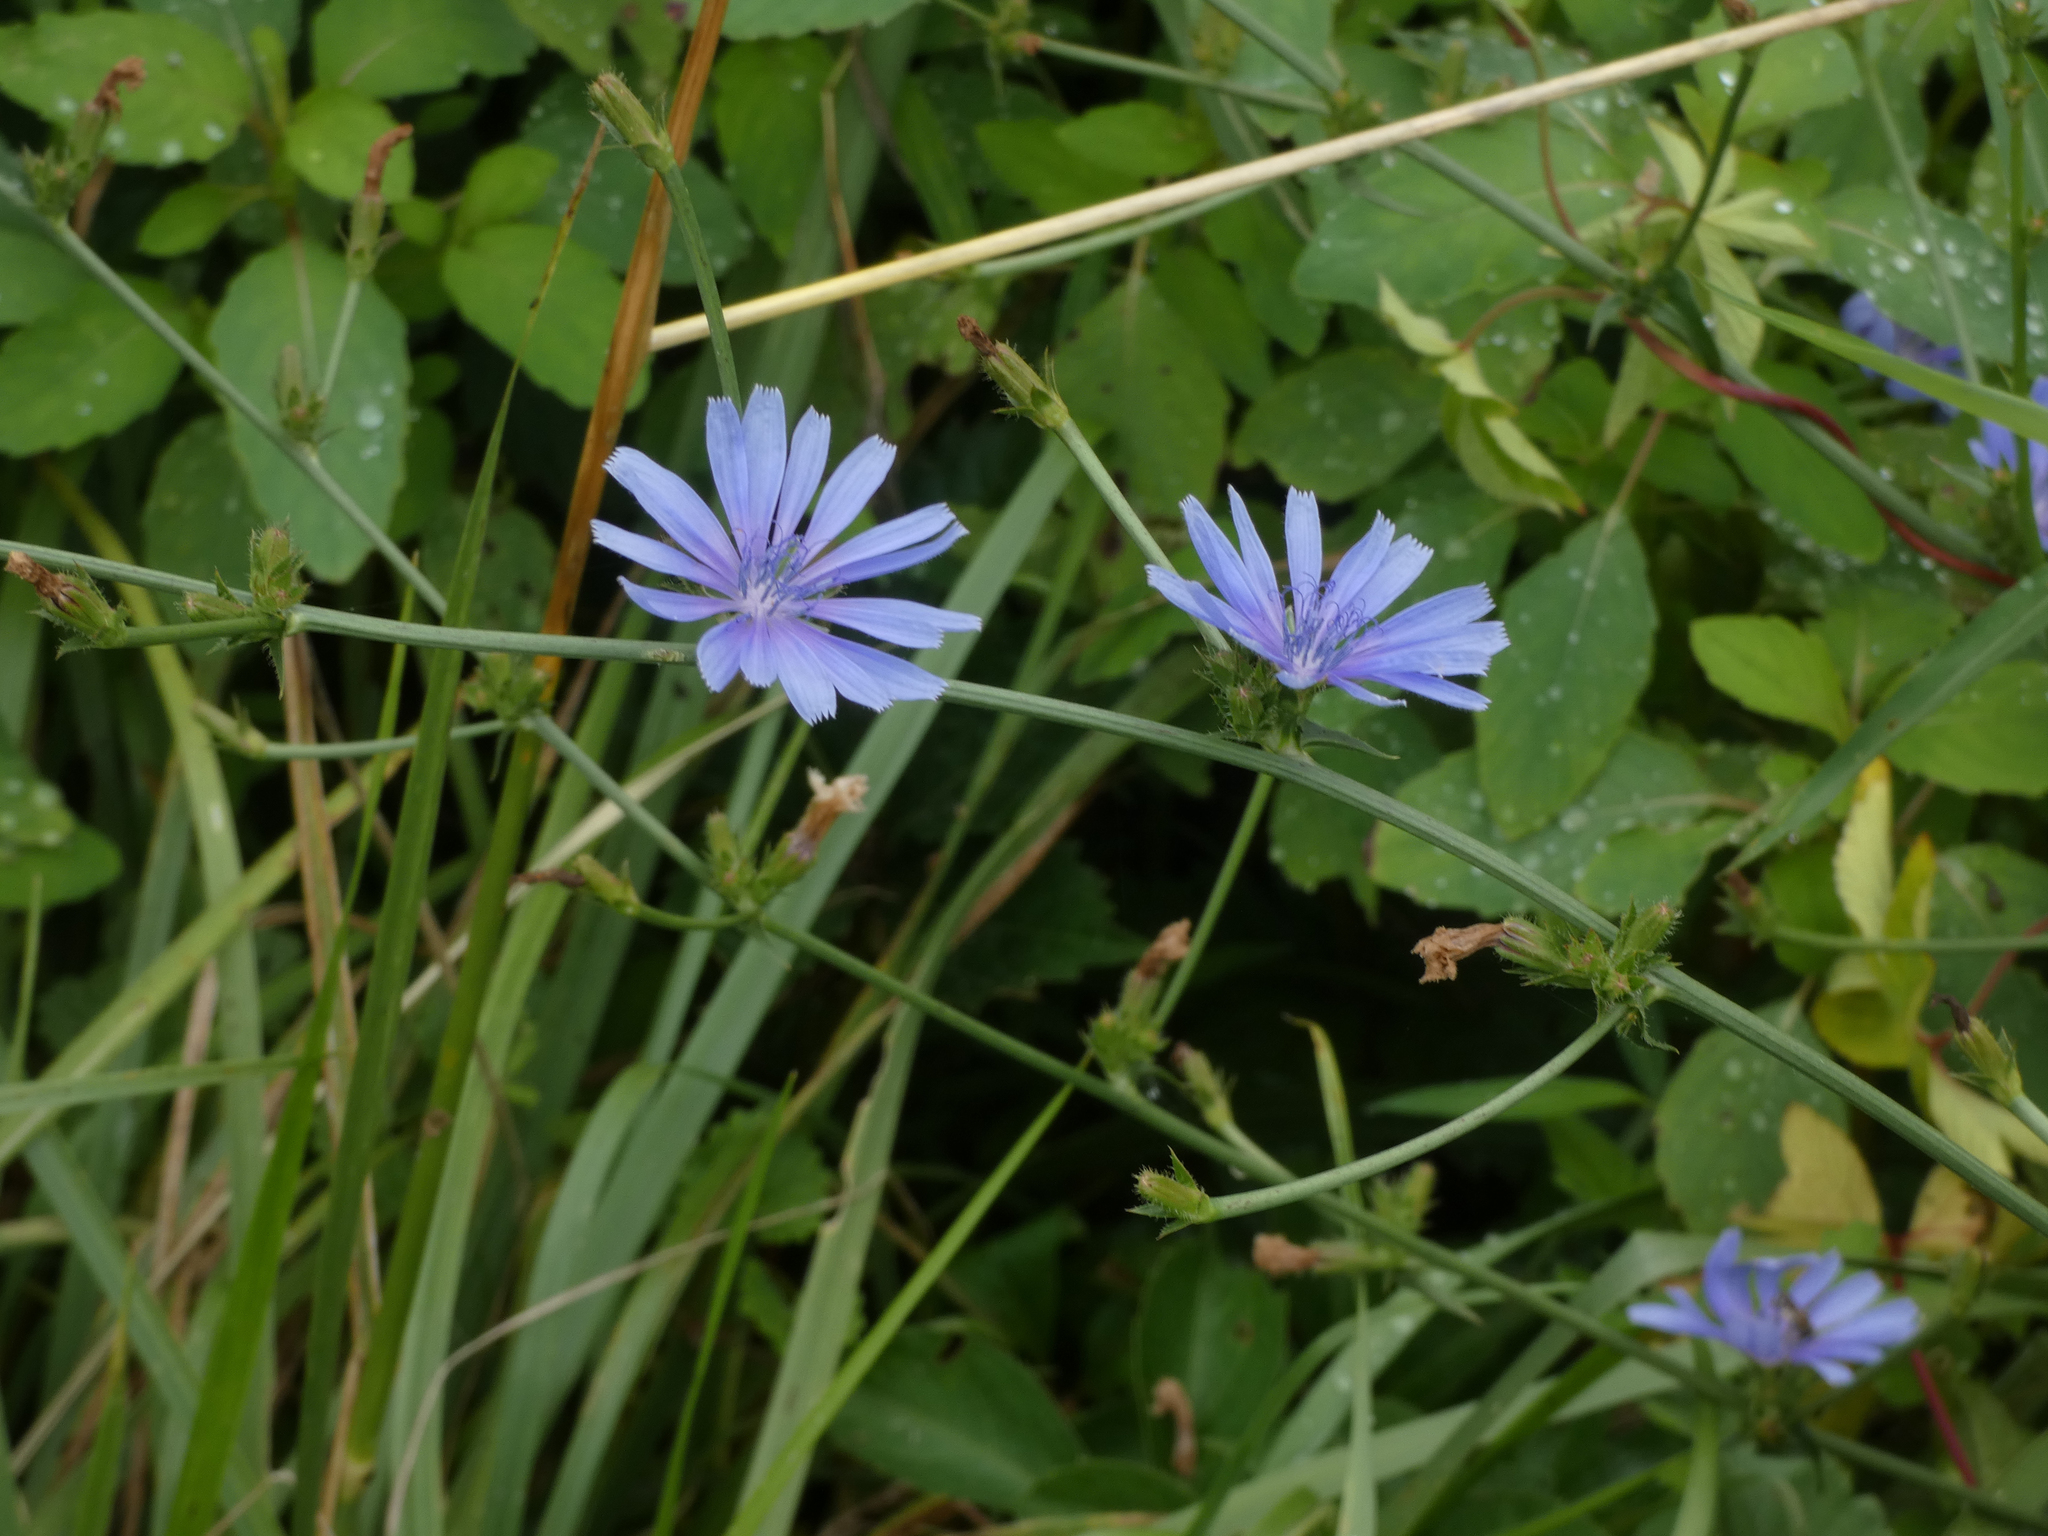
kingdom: Plantae
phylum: Tracheophyta
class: Magnoliopsida
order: Asterales
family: Asteraceae
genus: Cichorium
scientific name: Cichorium intybus
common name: Chicory
